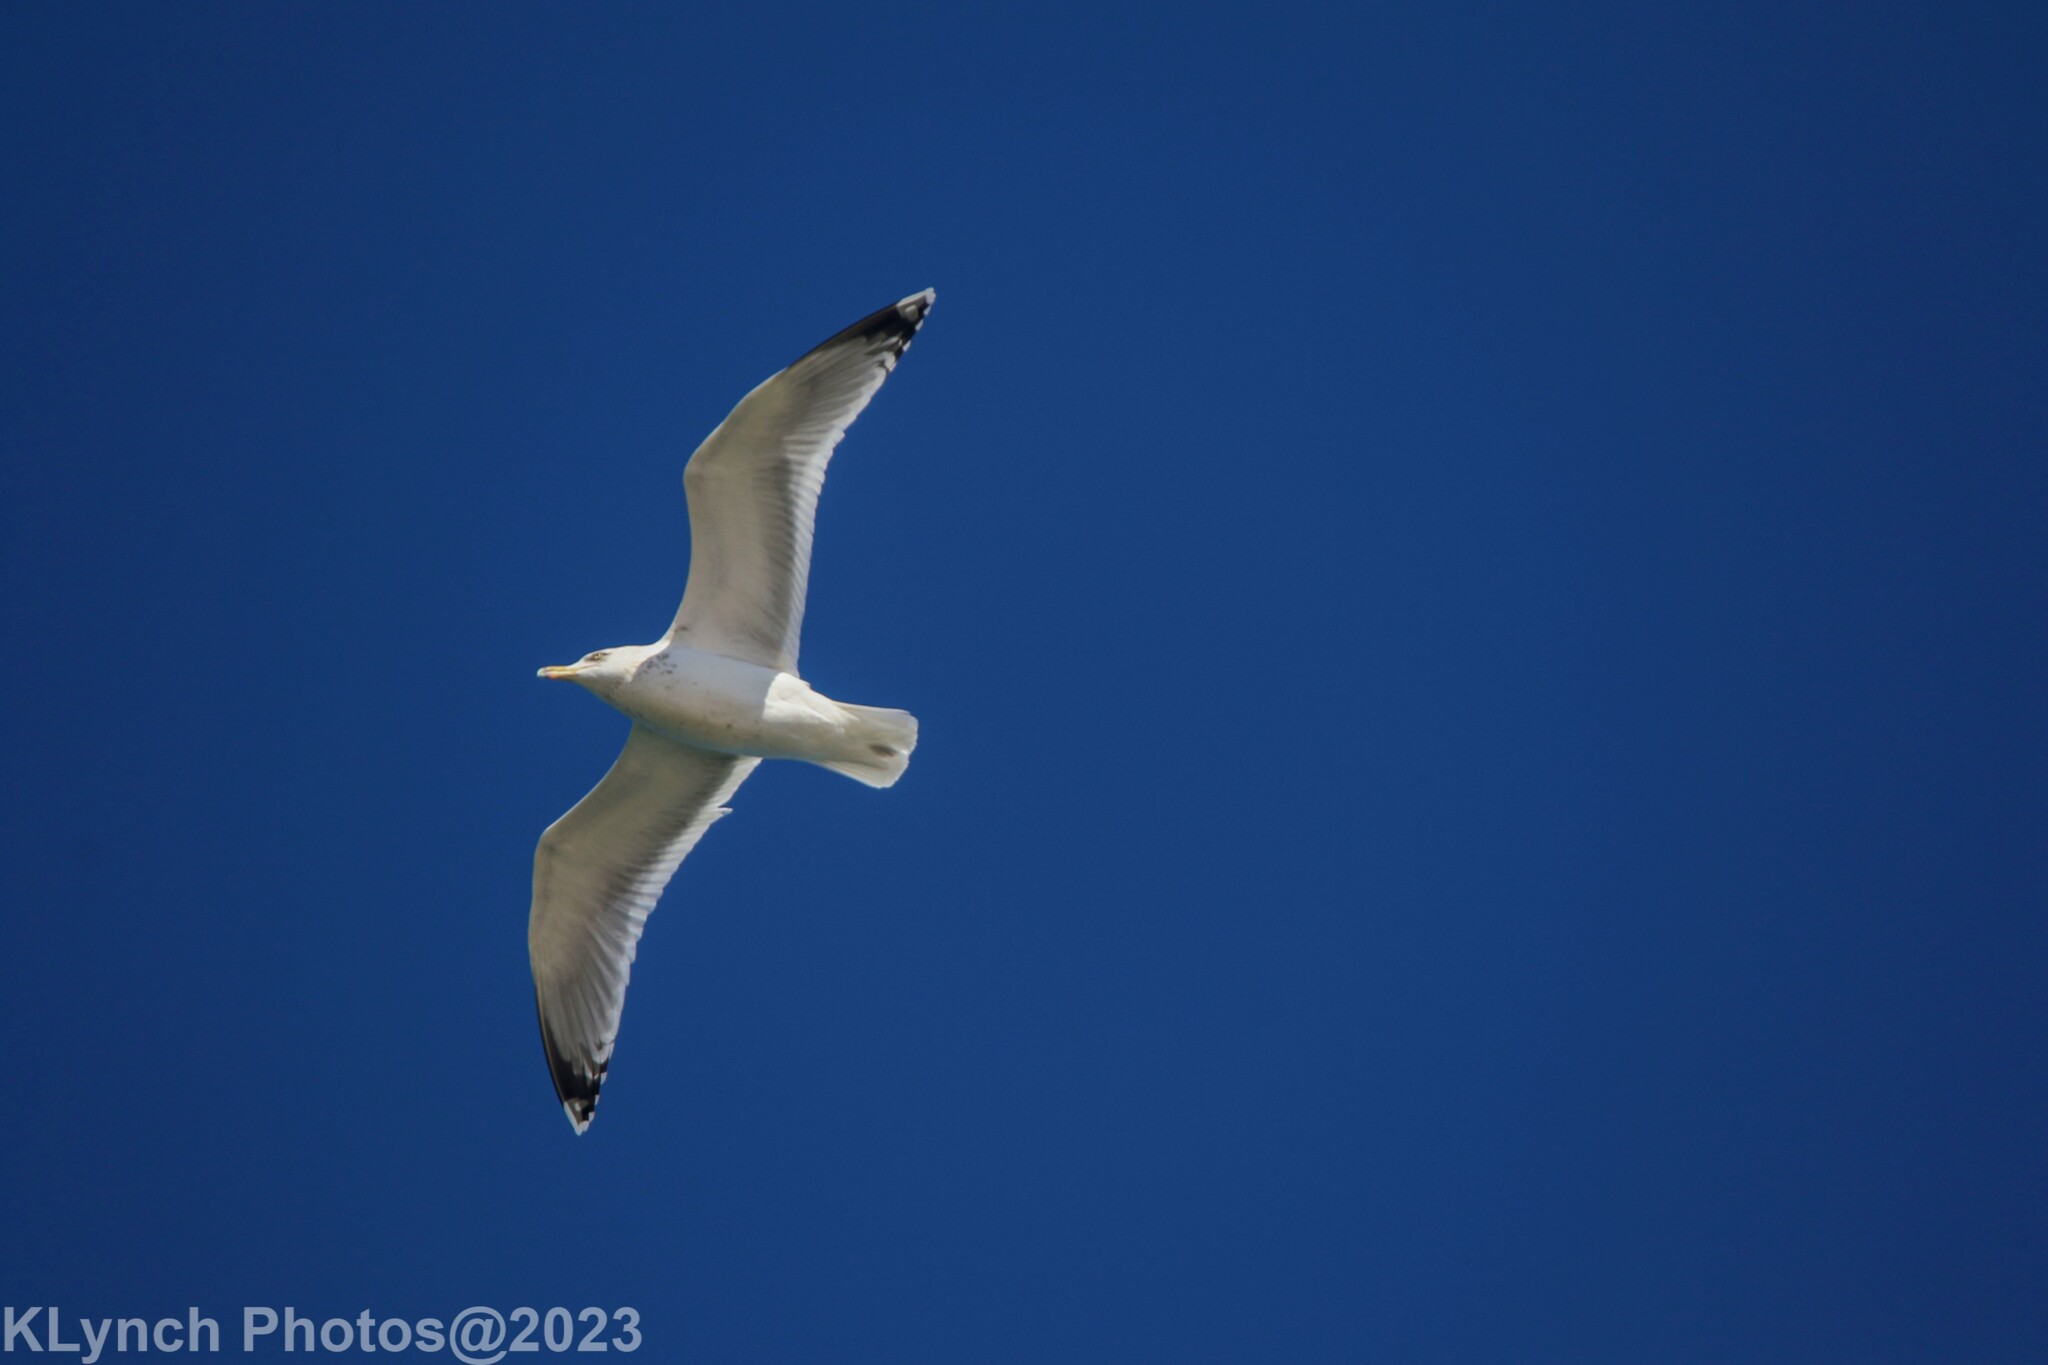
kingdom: Animalia
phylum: Chordata
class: Aves
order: Charadriiformes
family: Laridae
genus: Larus
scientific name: Larus argentatus
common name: Herring gull
